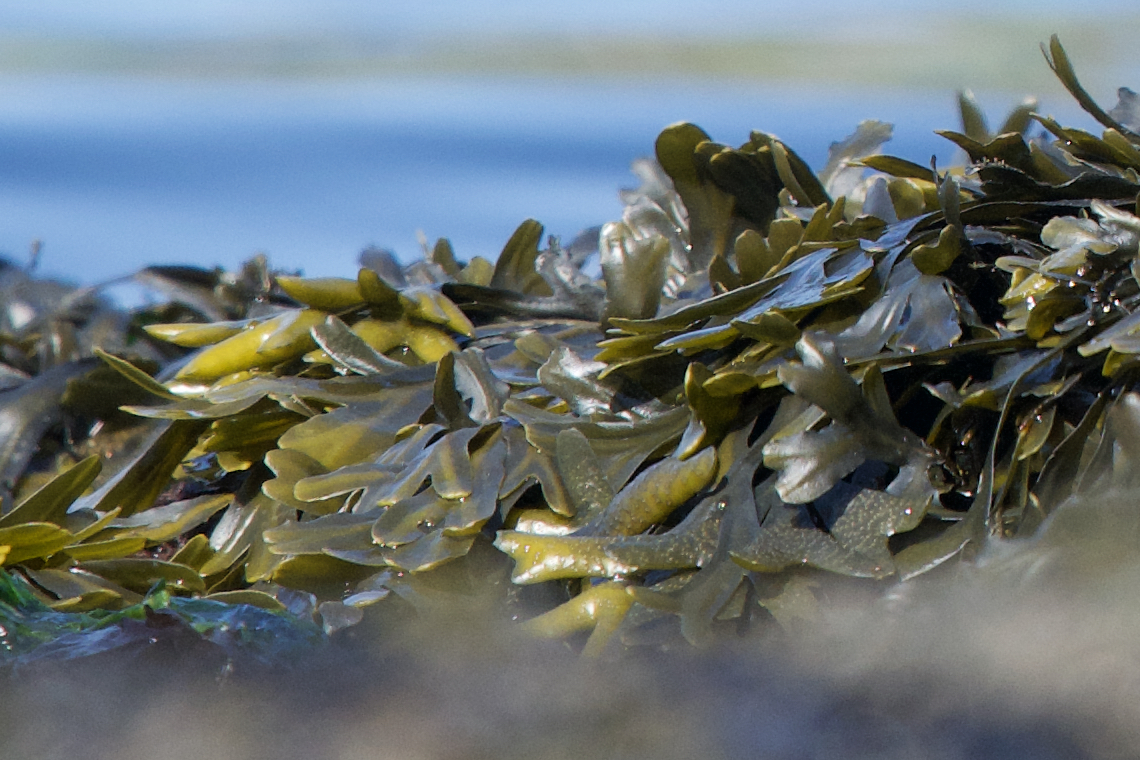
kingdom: Chromista
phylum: Ochrophyta
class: Phaeophyceae
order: Fucales
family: Fucaceae
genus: Fucus
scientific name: Fucus distichus
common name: Rockweed
